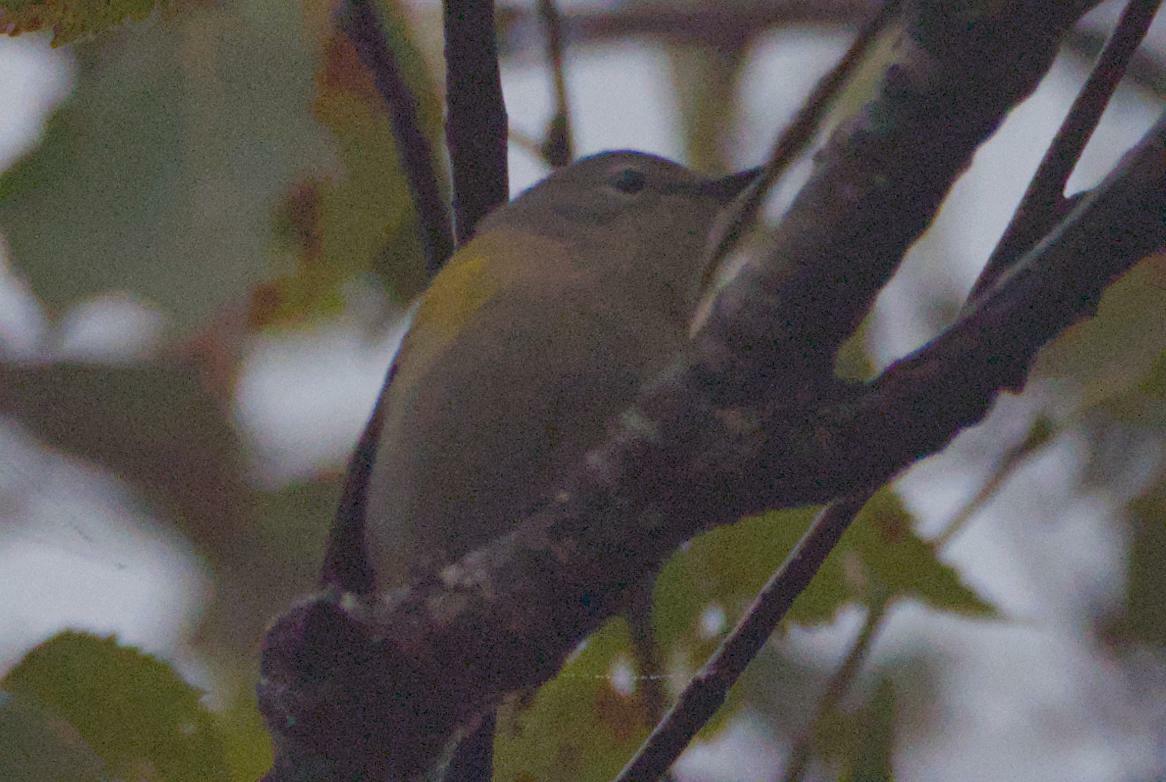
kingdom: Animalia
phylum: Chordata
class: Aves
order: Passeriformes
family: Parulidae
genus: Setophaga
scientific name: Setophaga ruticilla
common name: American redstart
